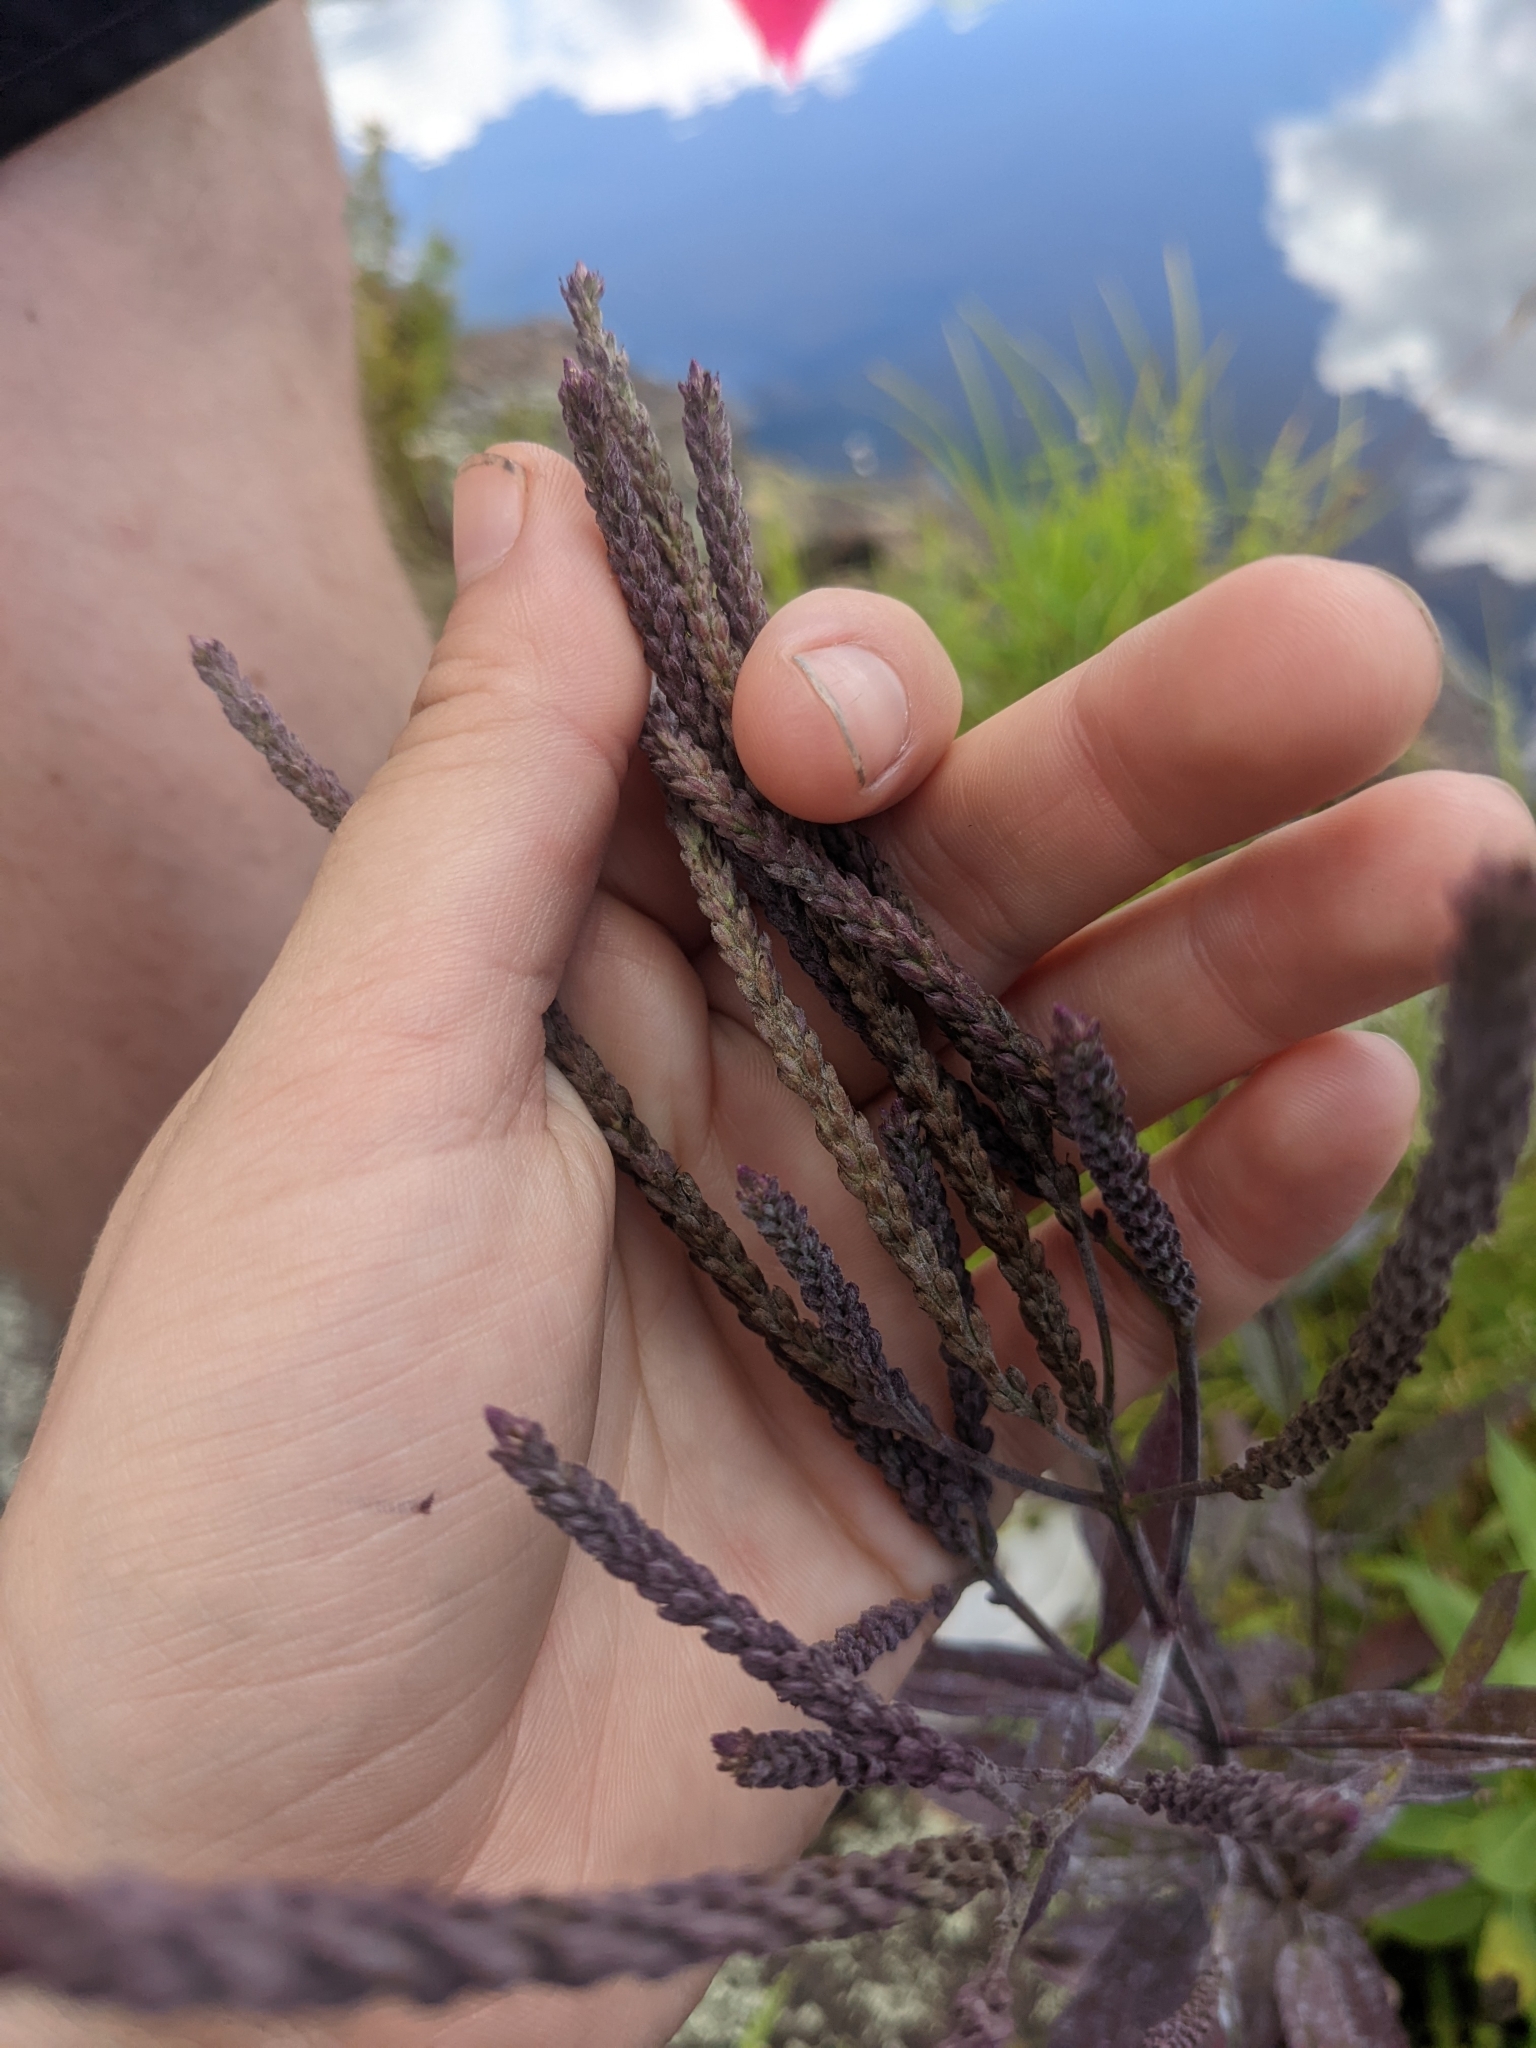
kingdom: Plantae
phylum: Tracheophyta
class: Magnoliopsida
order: Lamiales
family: Verbenaceae
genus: Verbena
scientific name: Verbena hastata
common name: American blue vervain
